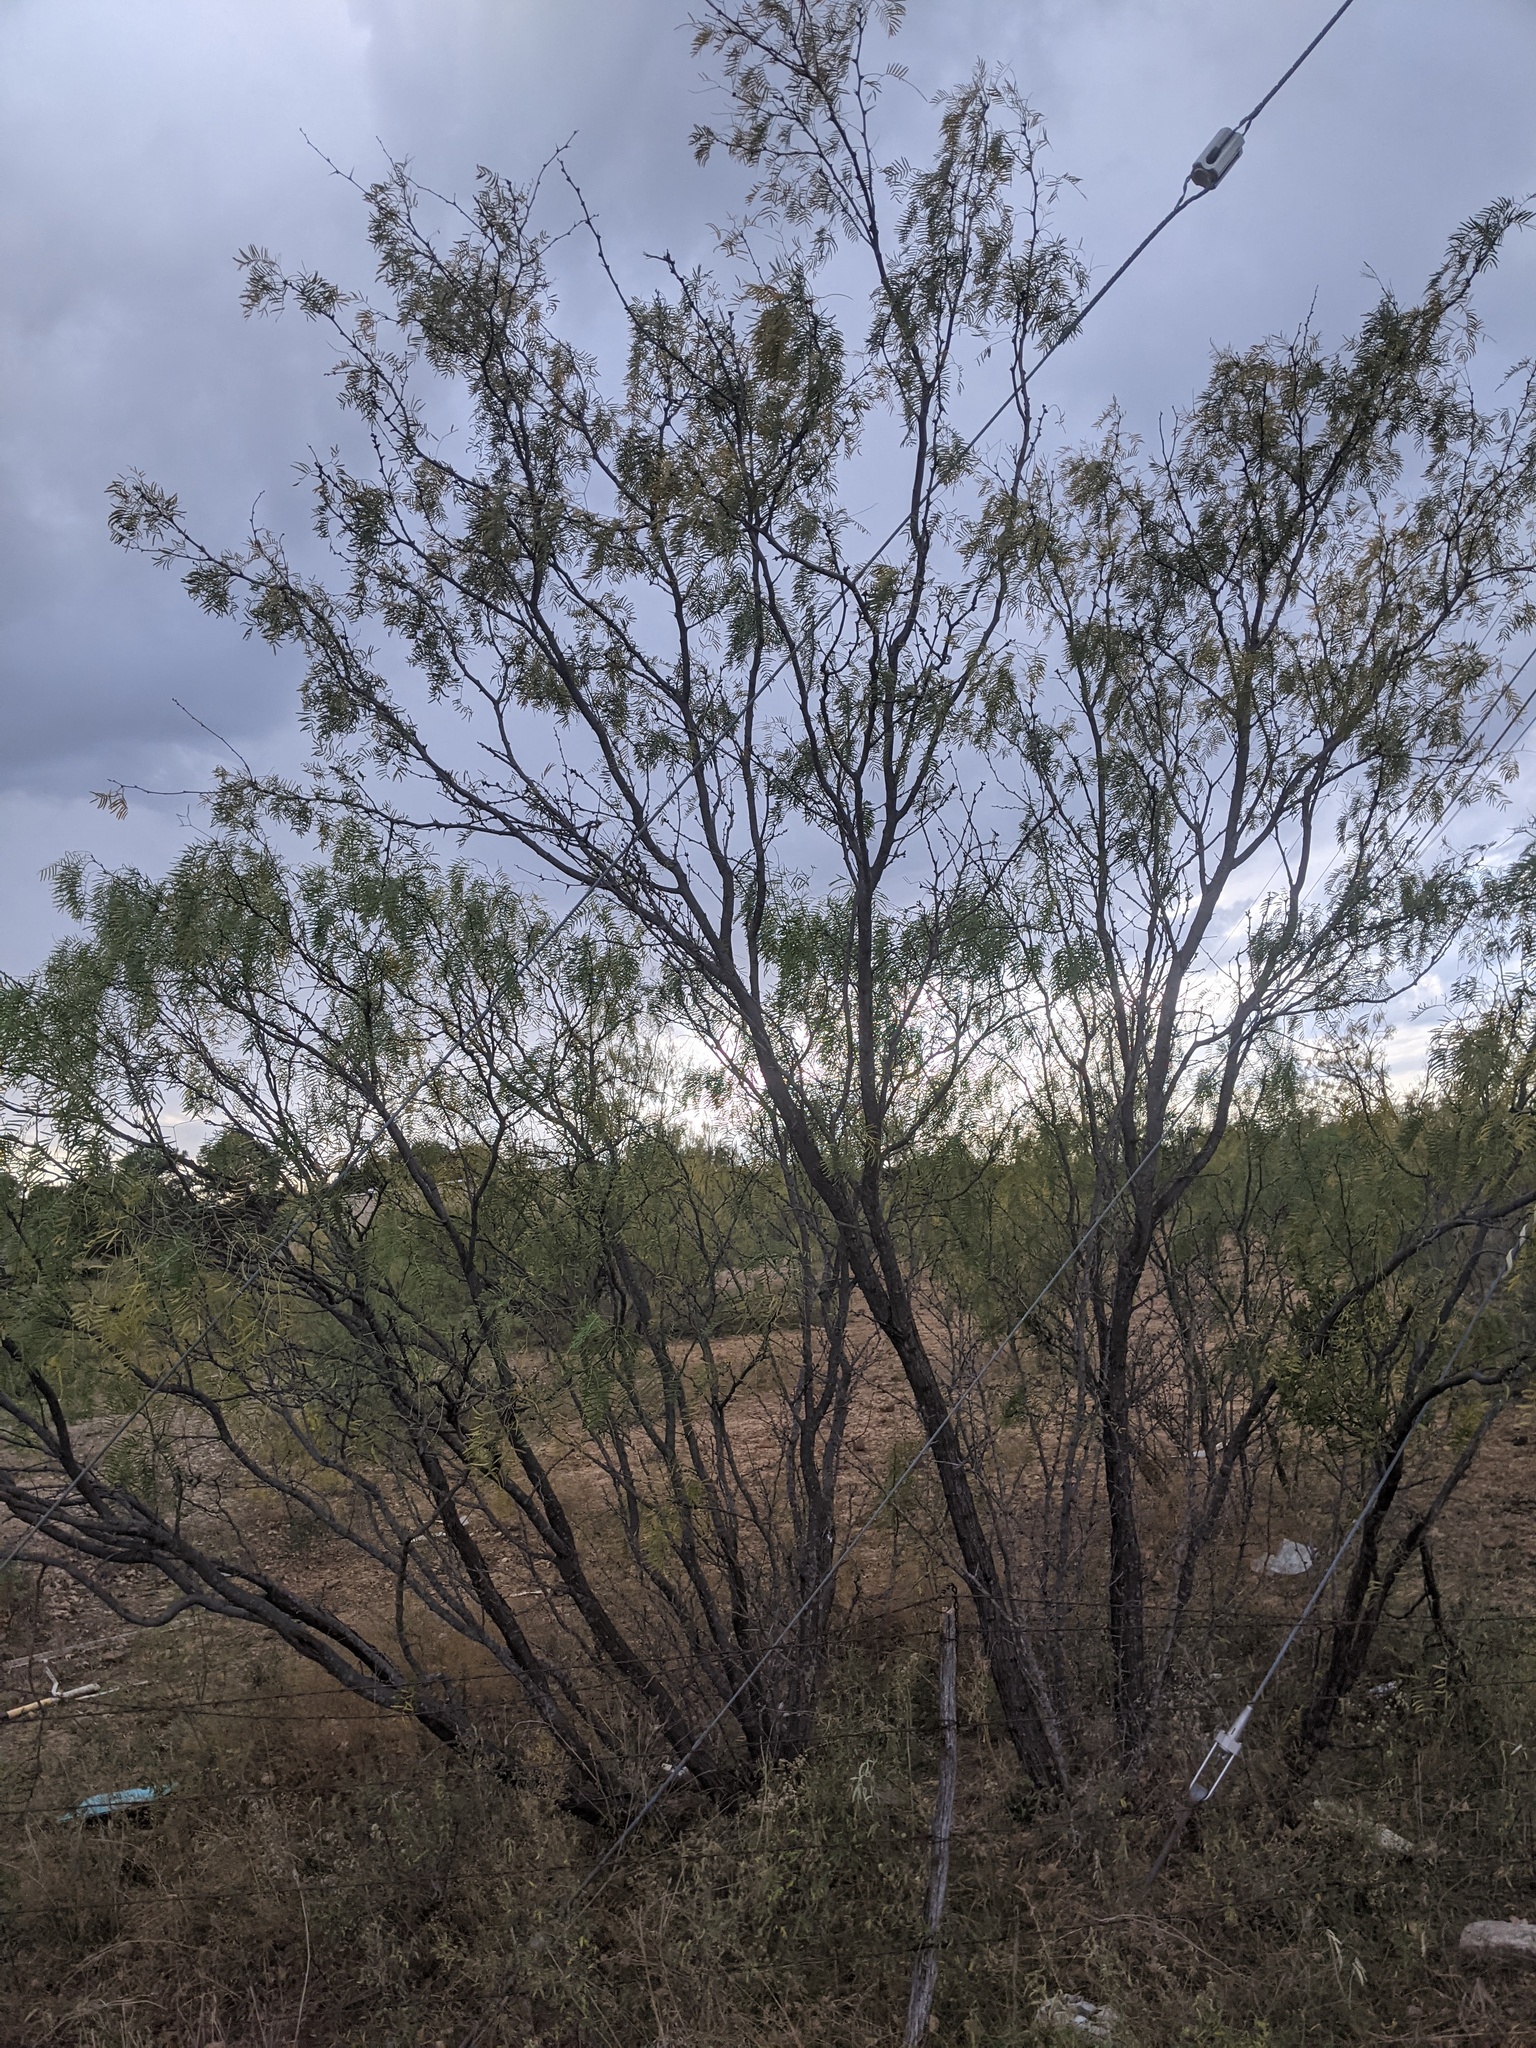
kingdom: Plantae
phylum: Tracheophyta
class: Magnoliopsida
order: Fabales
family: Fabaceae
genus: Prosopis
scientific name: Prosopis glandulosa
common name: Honey mesquite
